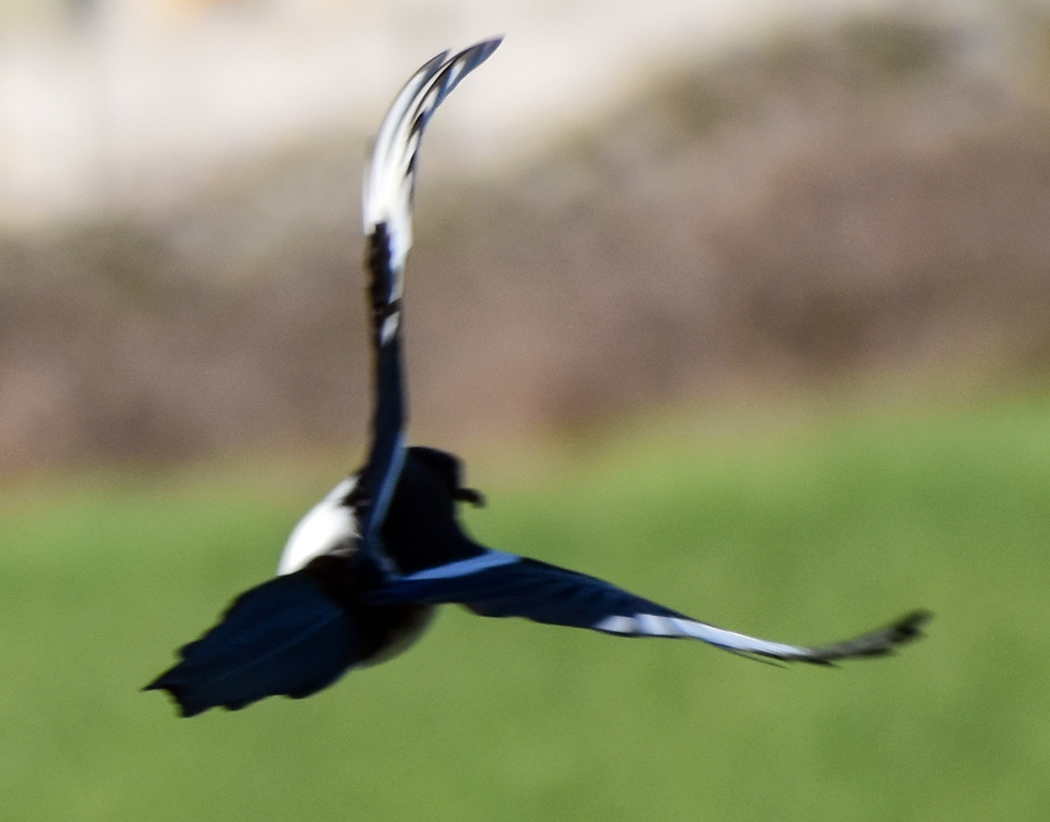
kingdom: Animalia
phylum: Chordata
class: Aves
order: Passeriformes
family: Corvidae
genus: Pica
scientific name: Pica pica
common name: Eurasian magpie
